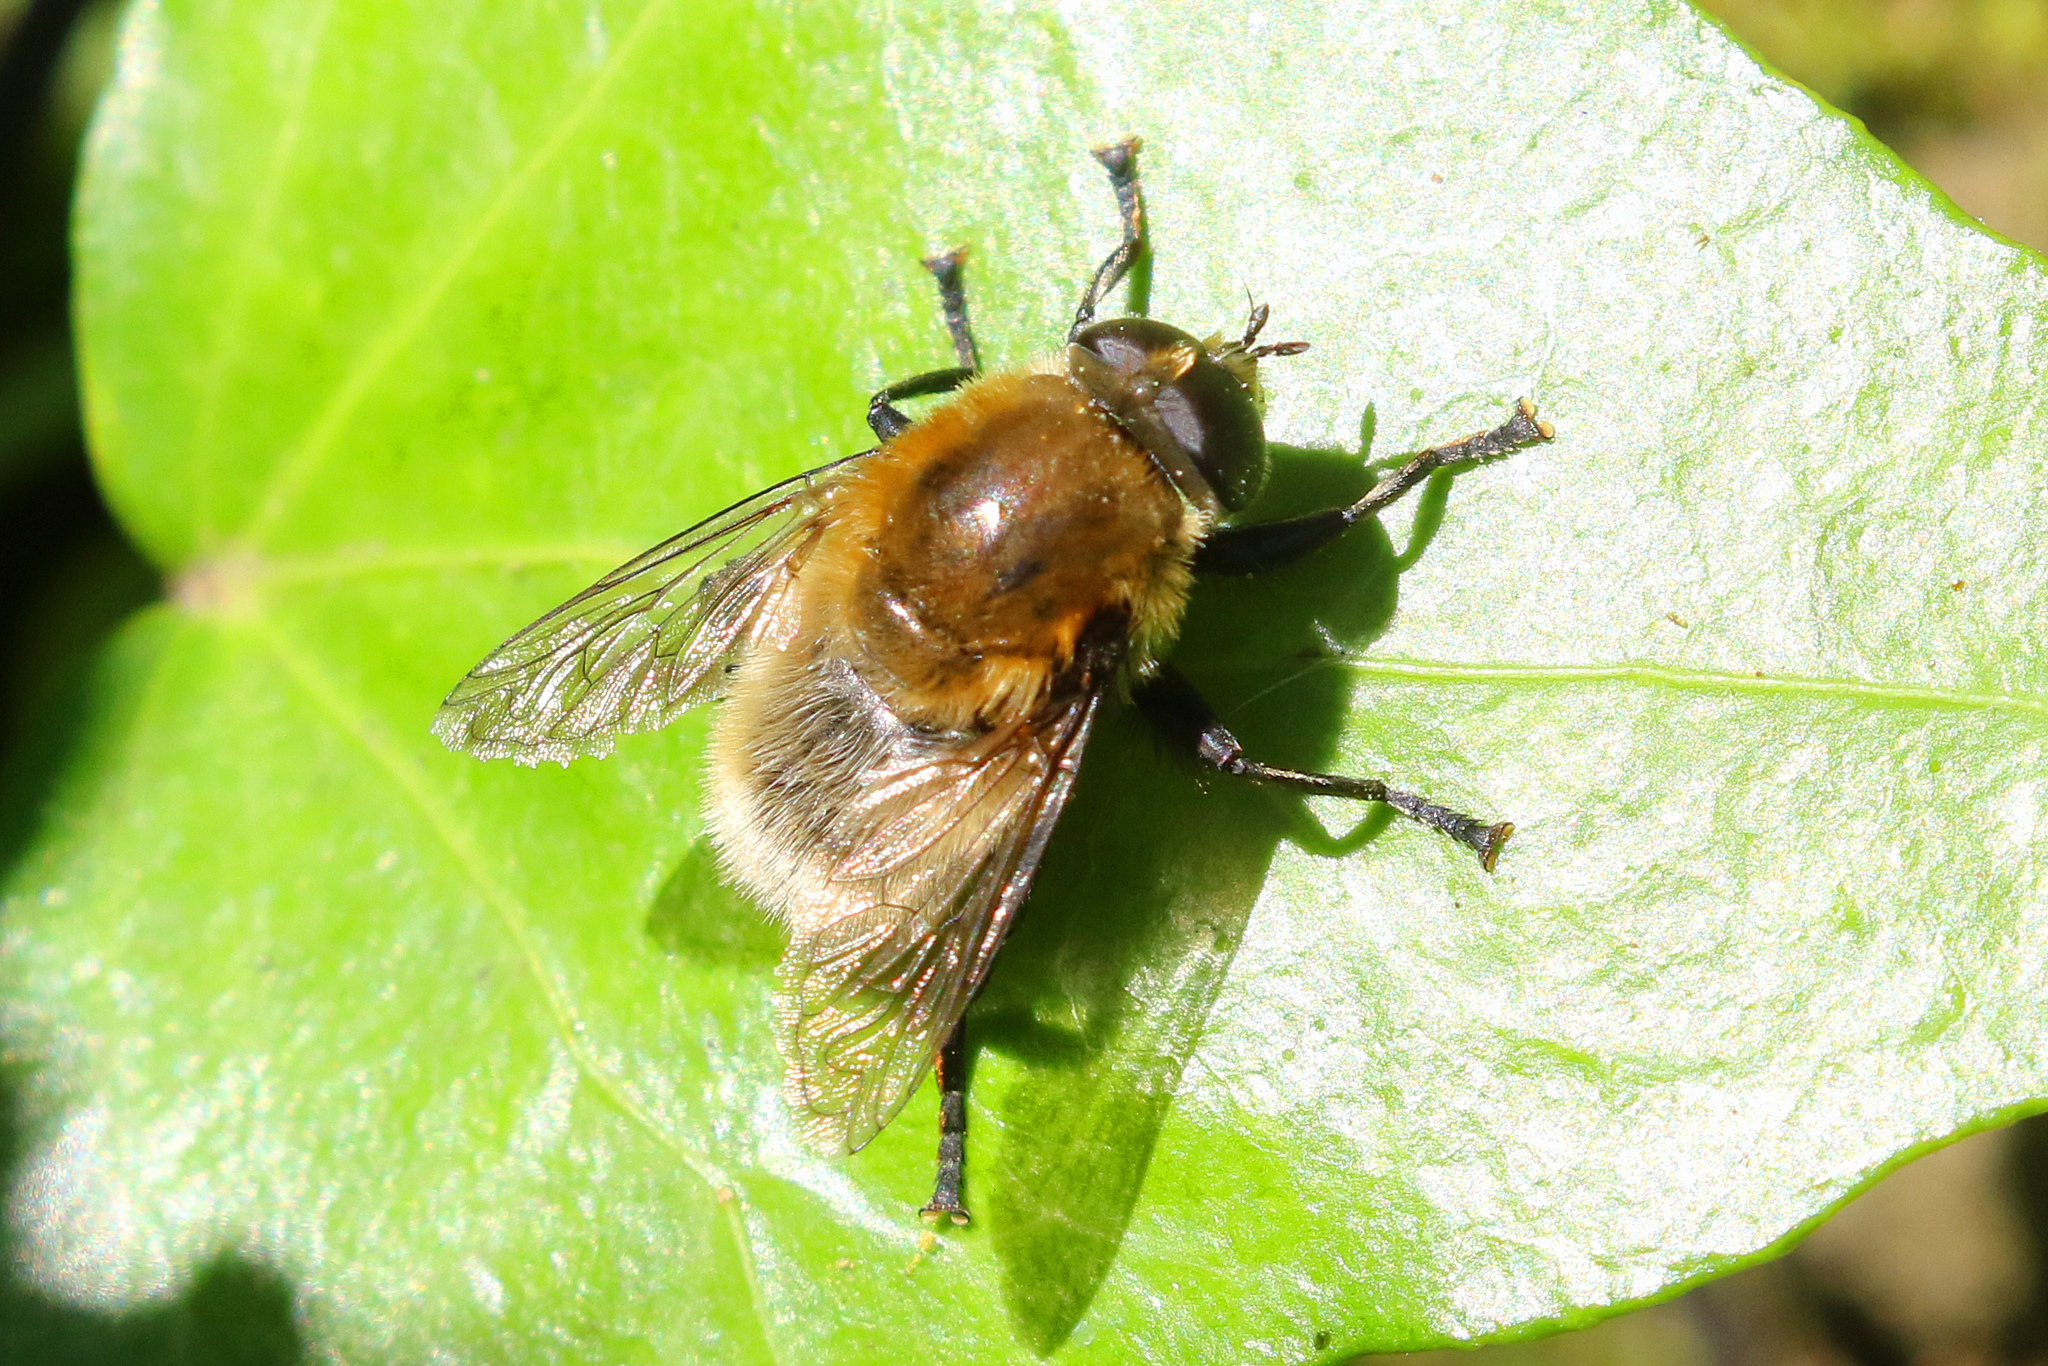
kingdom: Animalia
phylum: Arthropoda
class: Insecta
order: Diptera
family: Syrphidae
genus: Merodon
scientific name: Merodon equestris
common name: Greater bulb-fly
